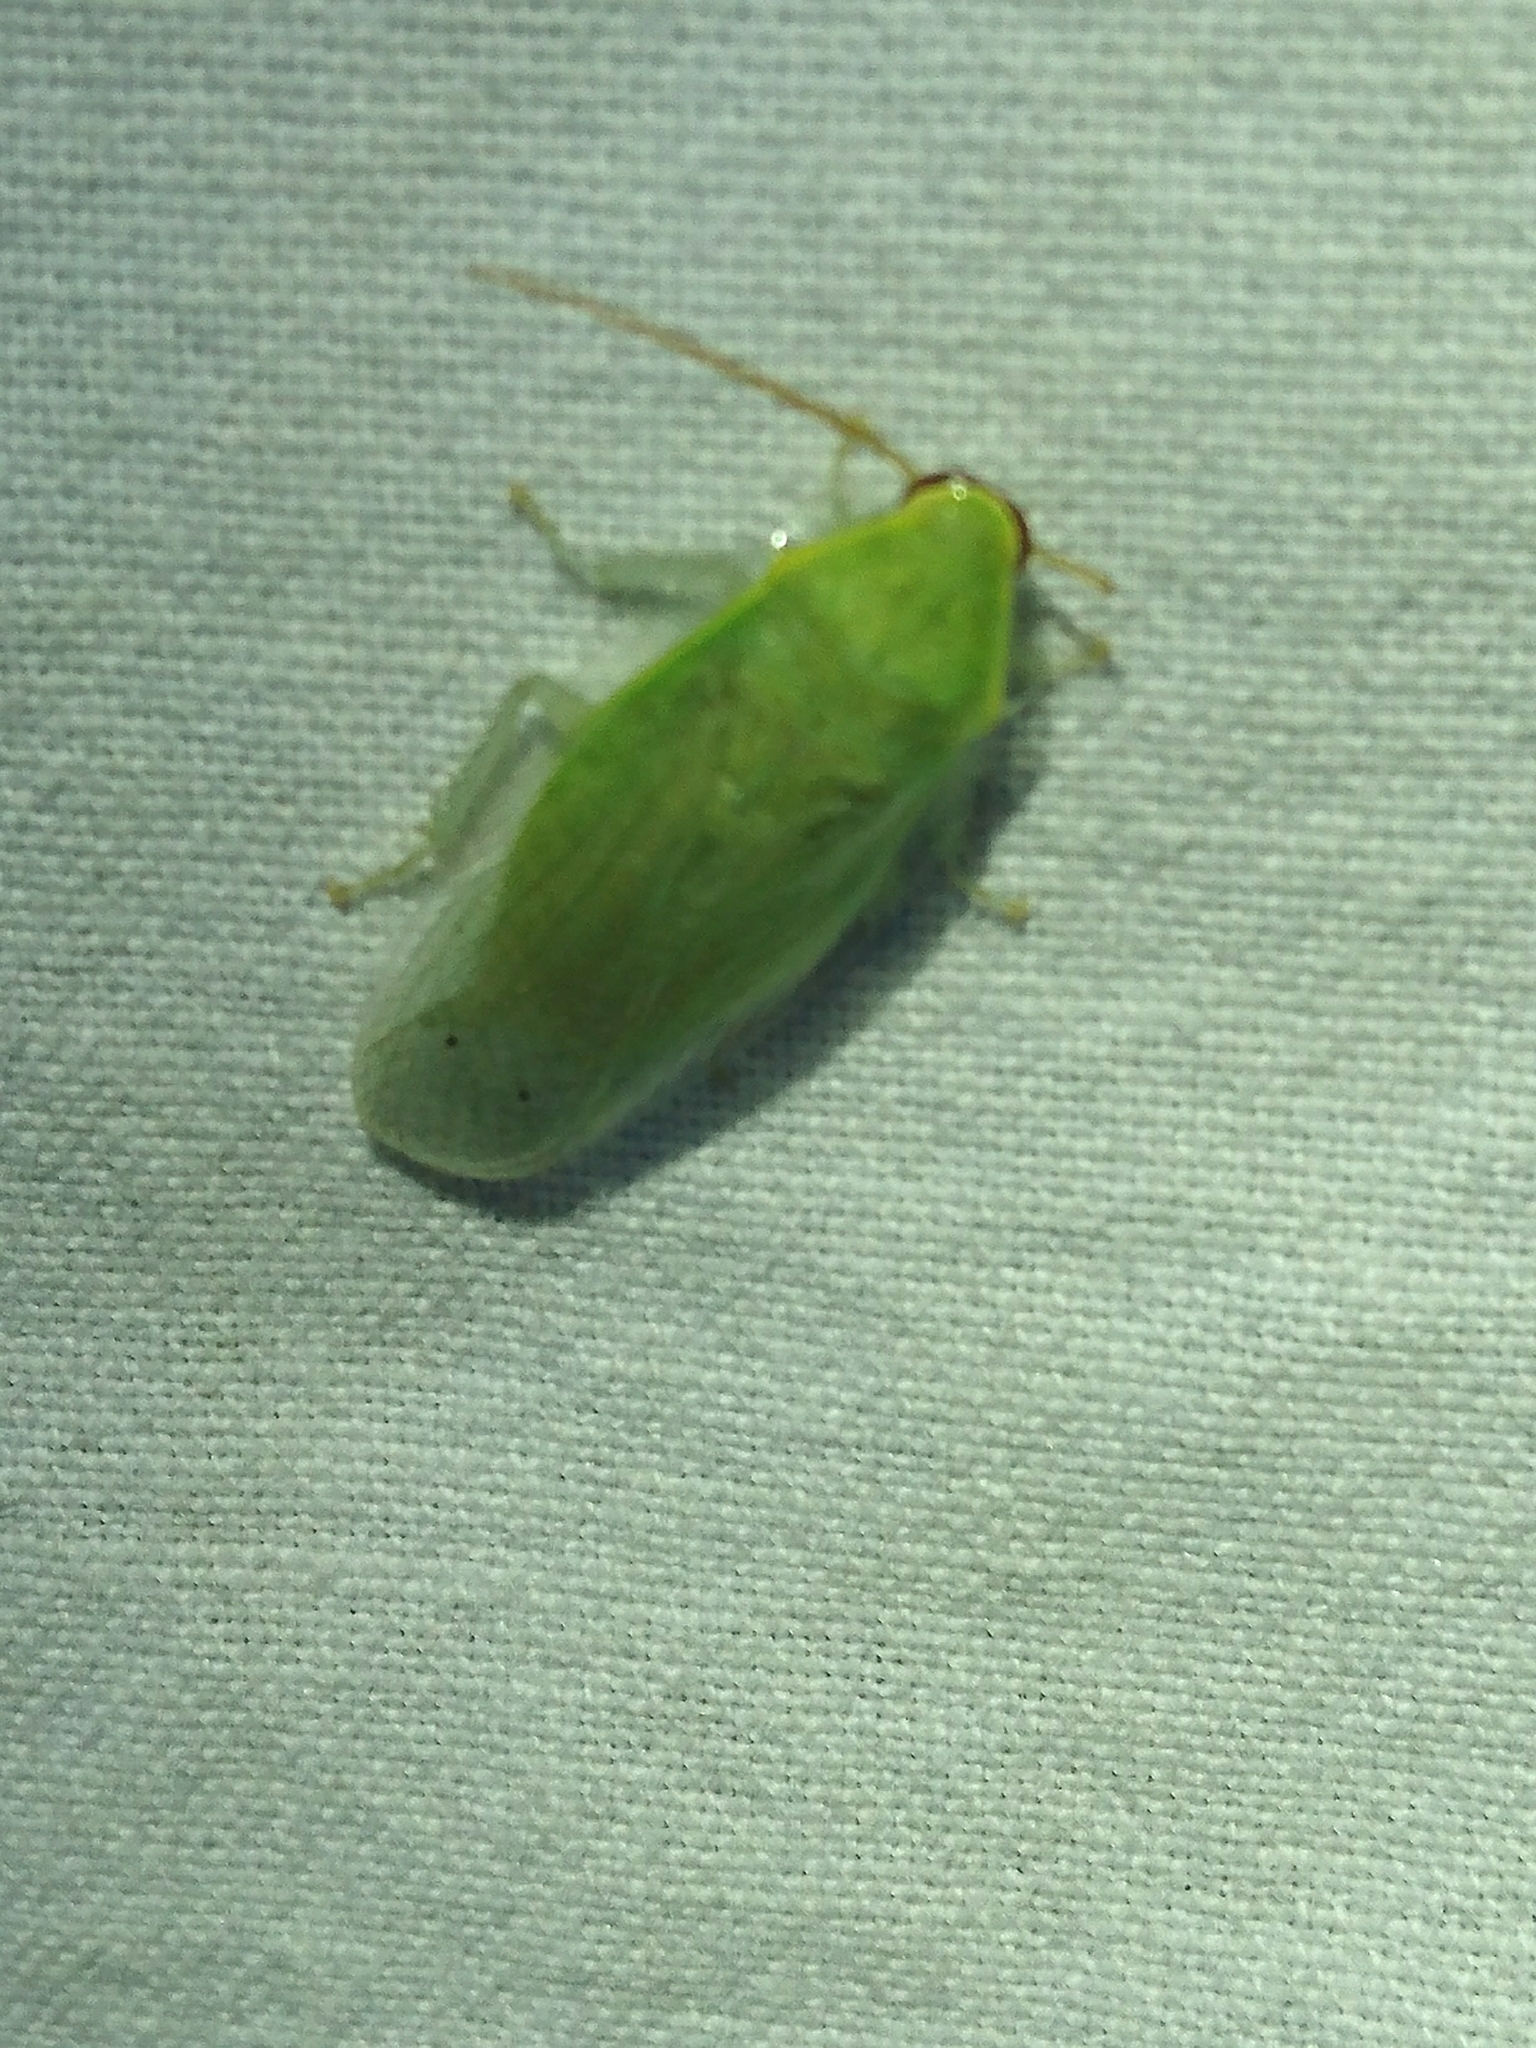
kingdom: Animalia
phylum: Arthropoda
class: Insecta
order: Blattodea
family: Blaberidae
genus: Panchlora
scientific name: Panchlora nivea
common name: Cuban cockroach
